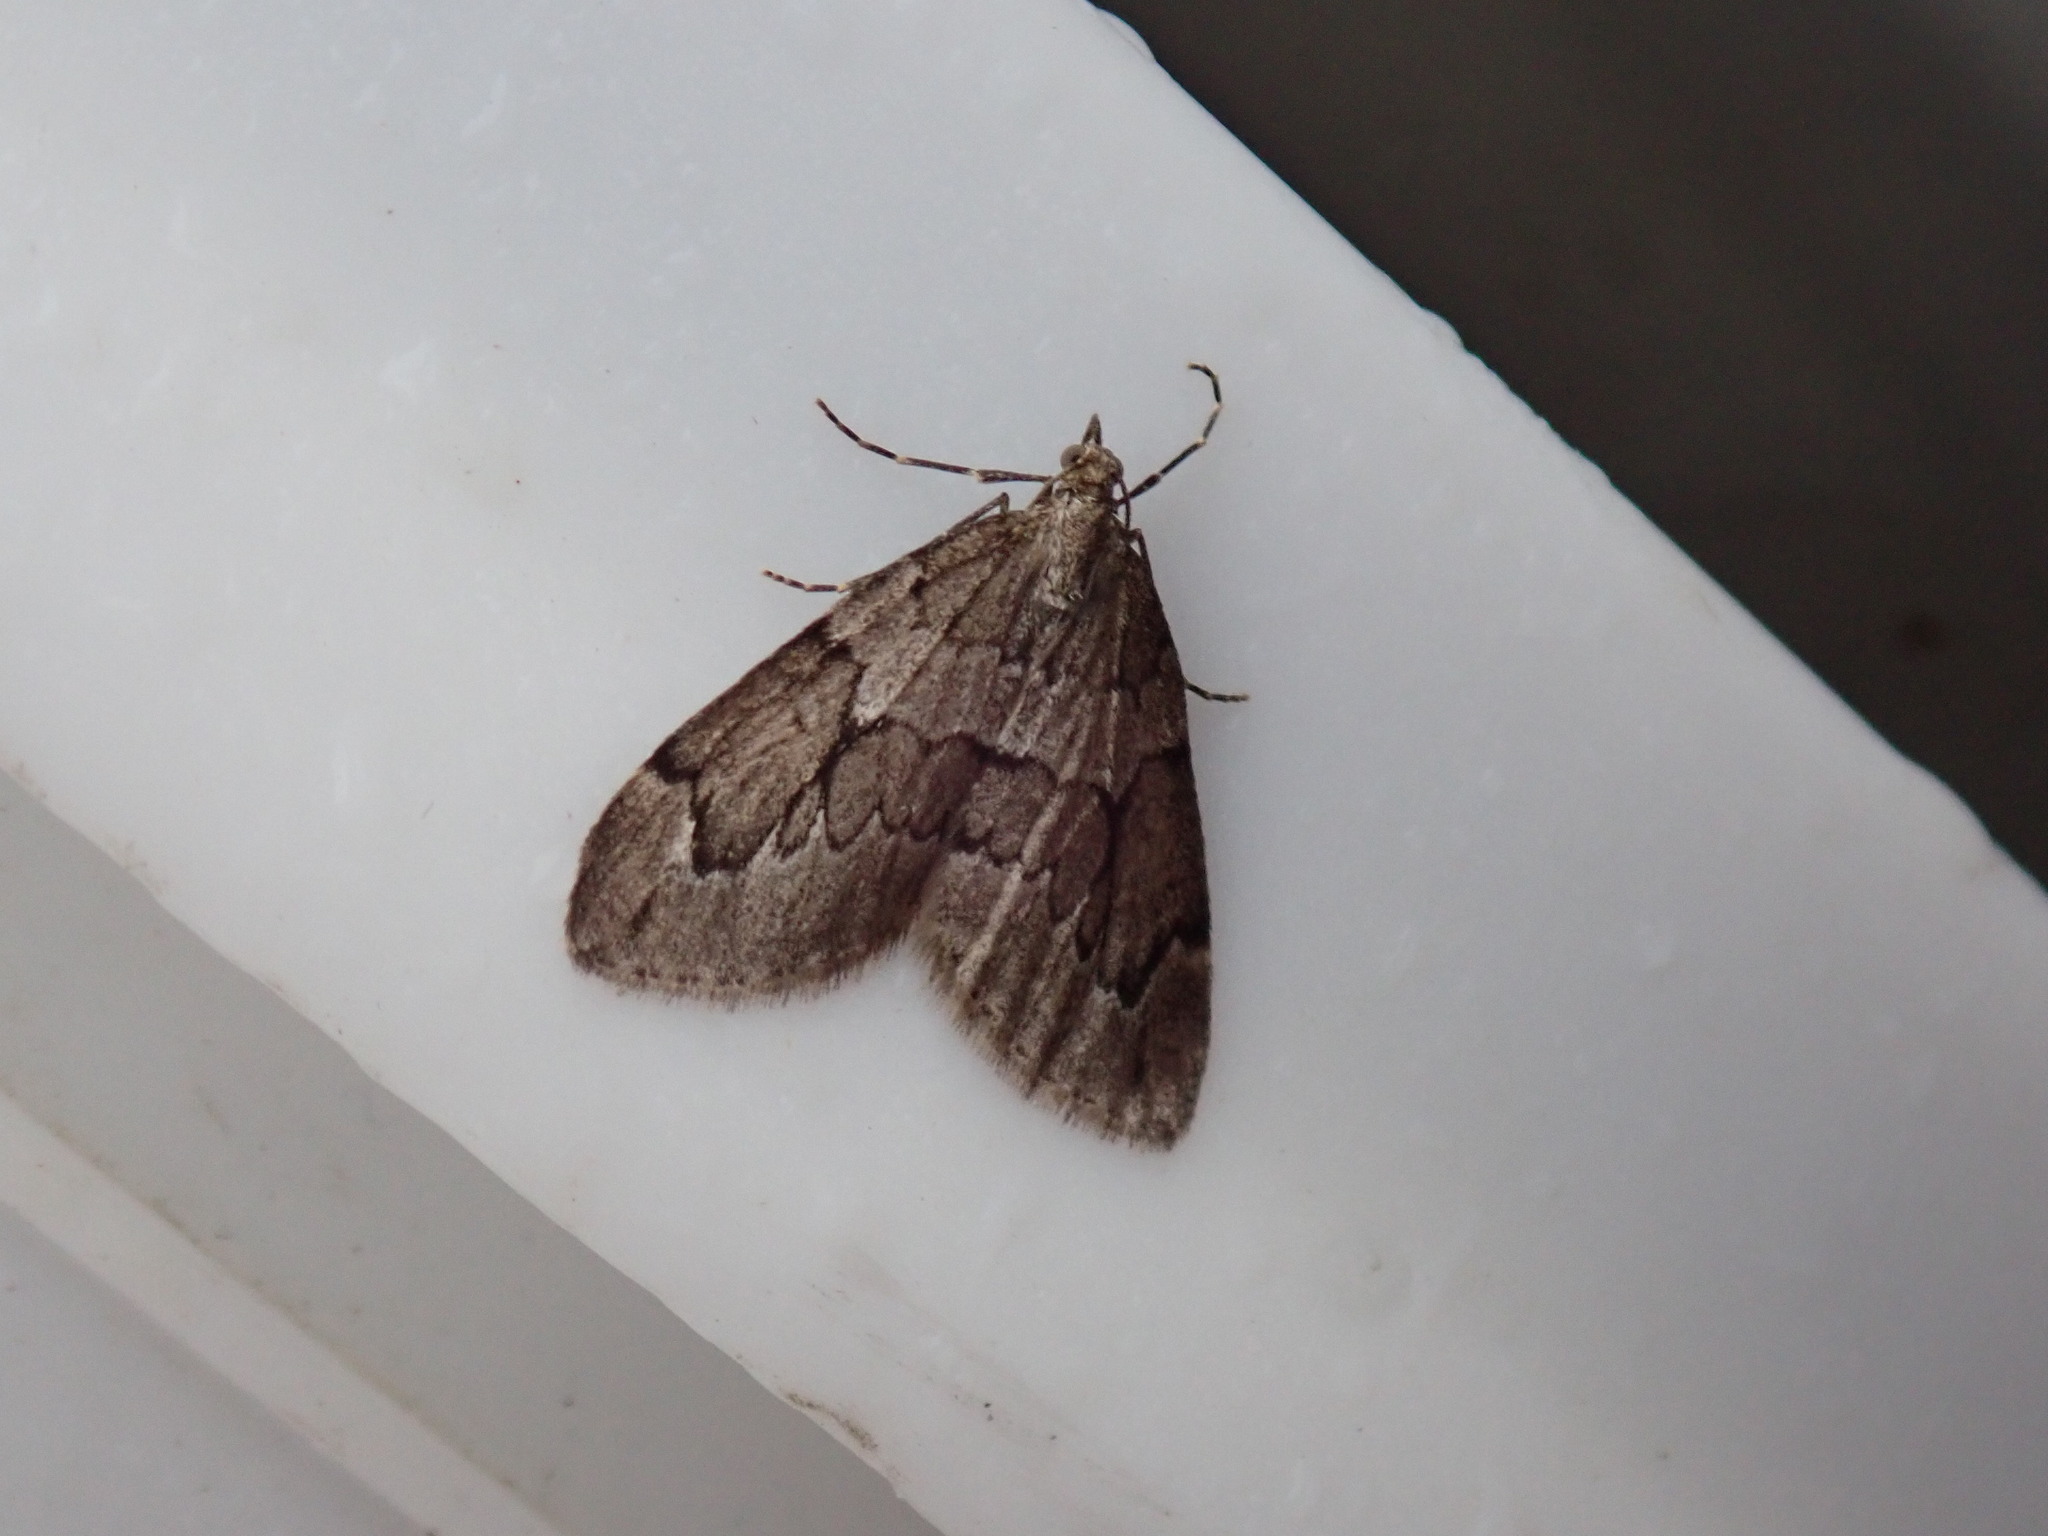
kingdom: Animalia
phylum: Arthropoda
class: Insecta
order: Lepidoptera
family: Geometridae
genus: Thera
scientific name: Thera juniperata
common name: Juniper carpet
